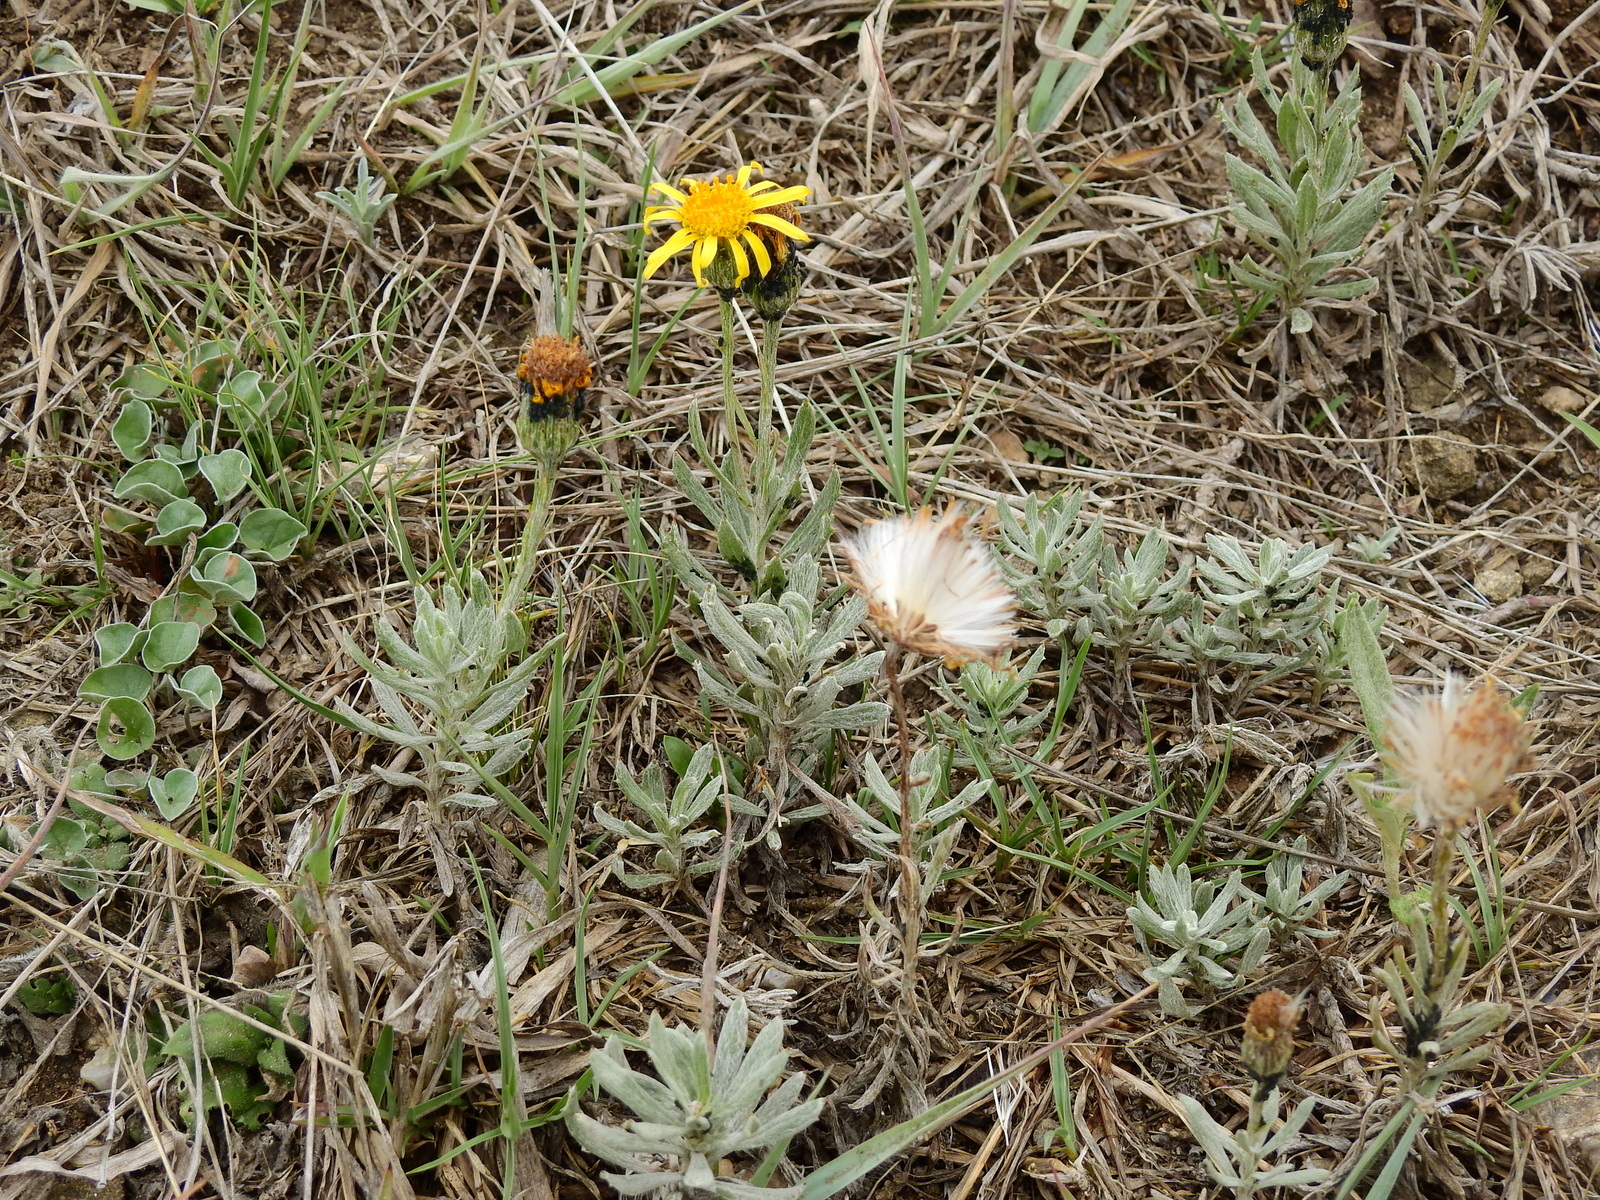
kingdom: Plantae
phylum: Tracheophyta
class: Magnoliopsida
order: Asterales
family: Asteraceae
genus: Senecio
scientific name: Senecio ceratophylloides
